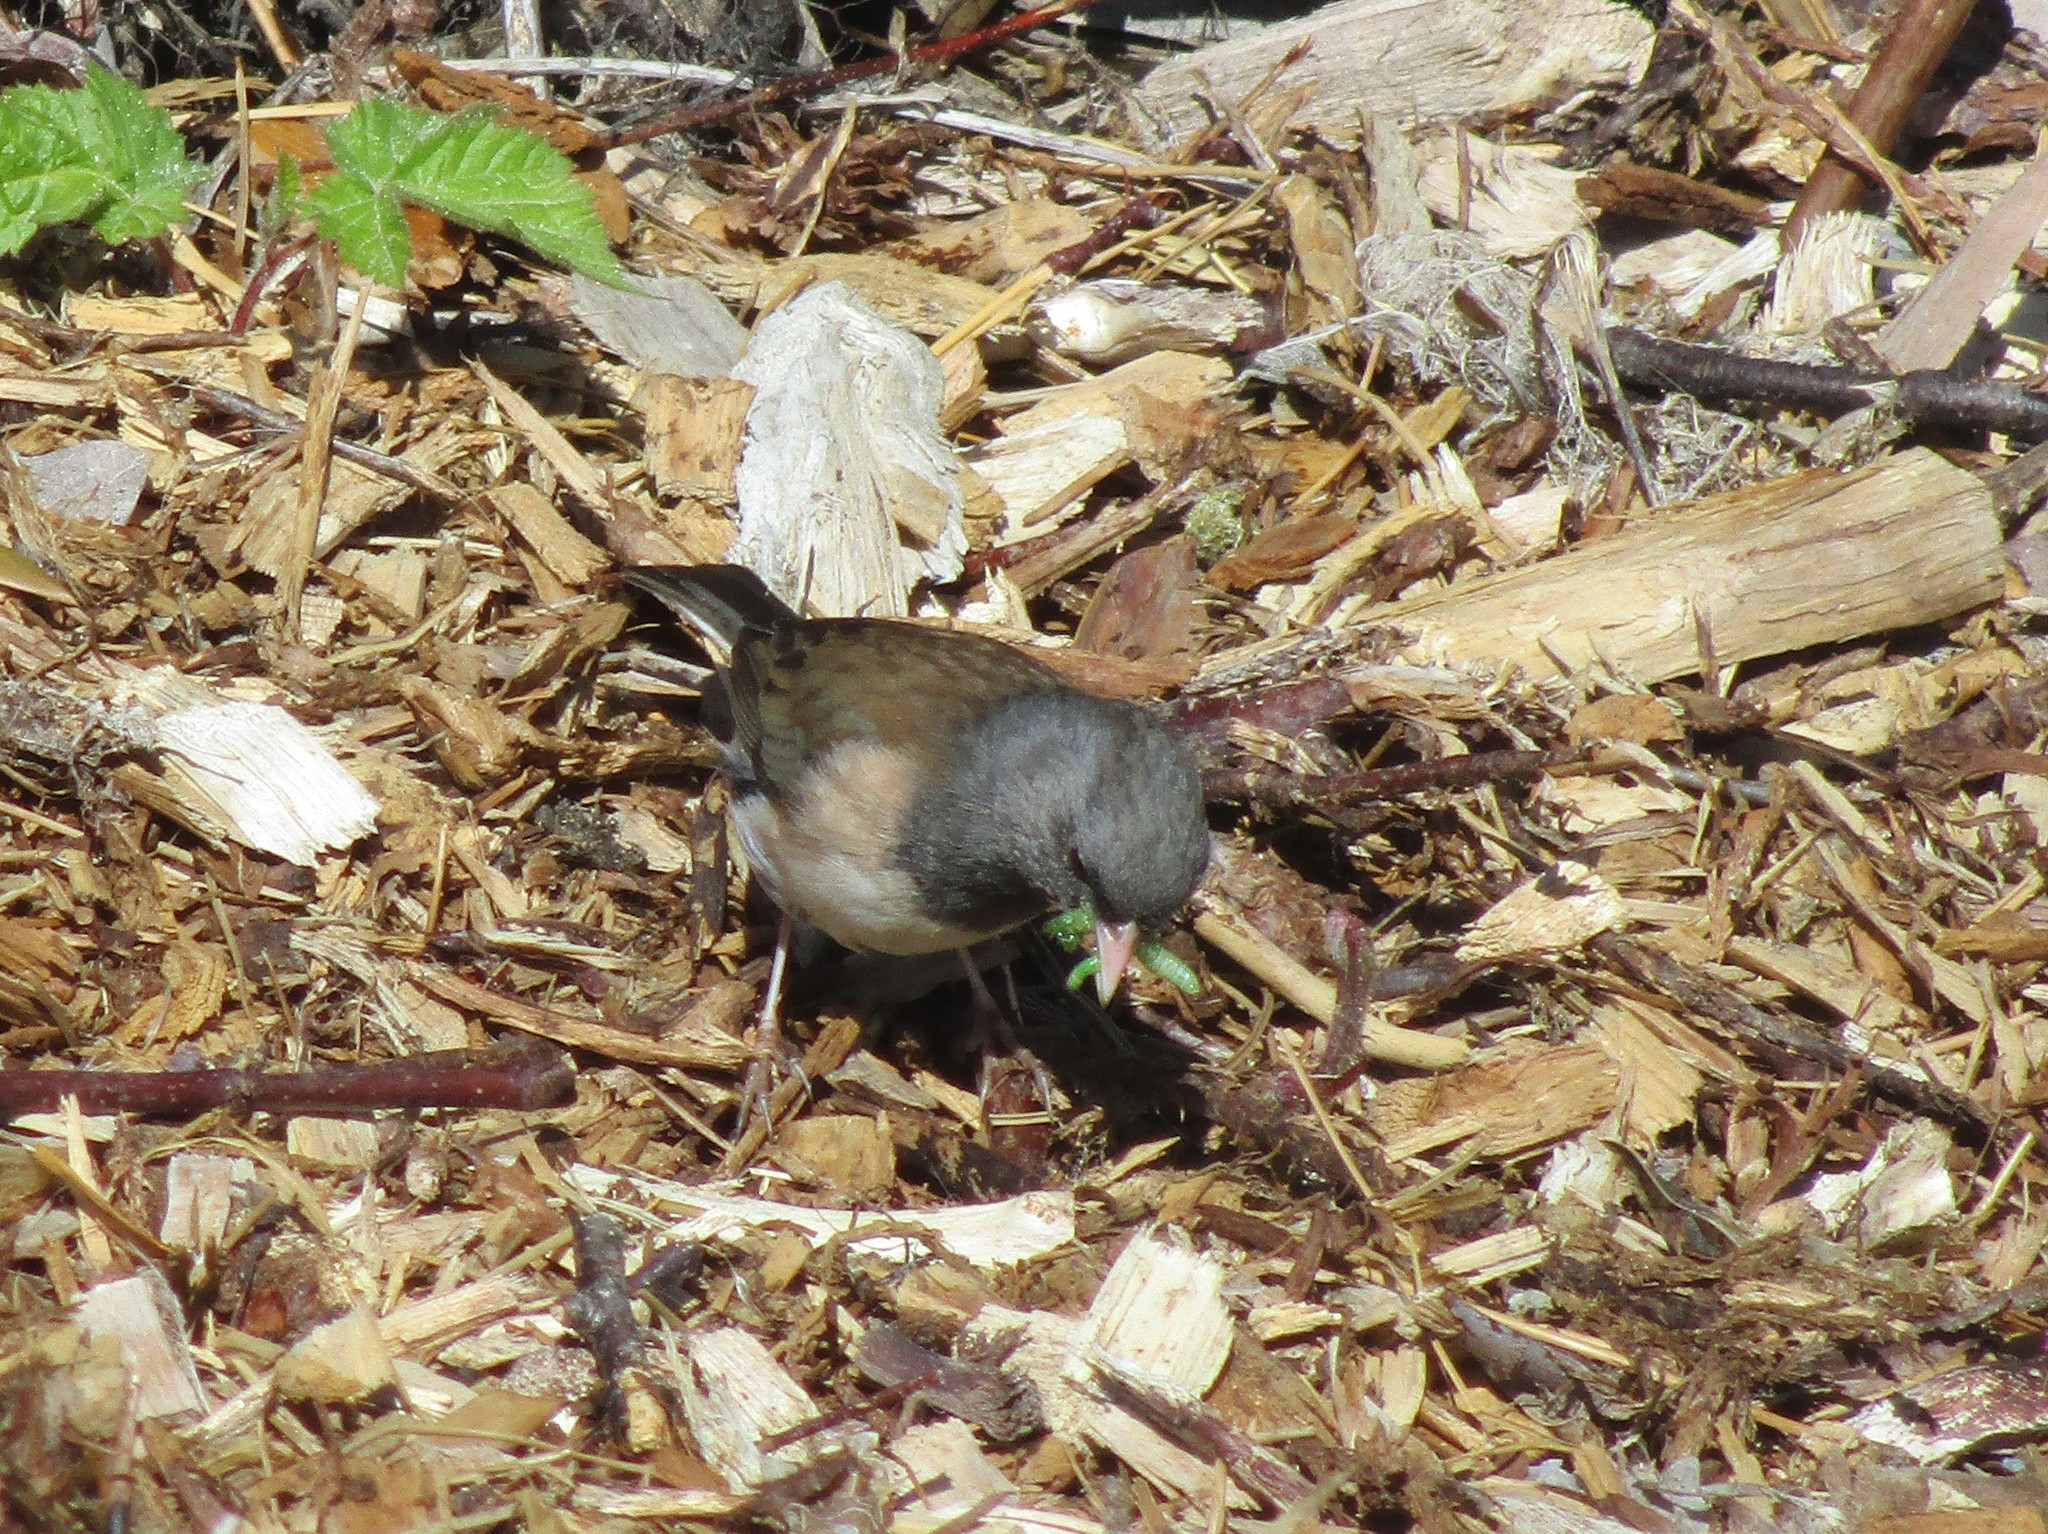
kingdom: Animalia
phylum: Chordata
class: Aves
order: Passeriformes
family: Passerellidae
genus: Junco
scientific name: Junco hyemalis
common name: Dark-eyed junco
